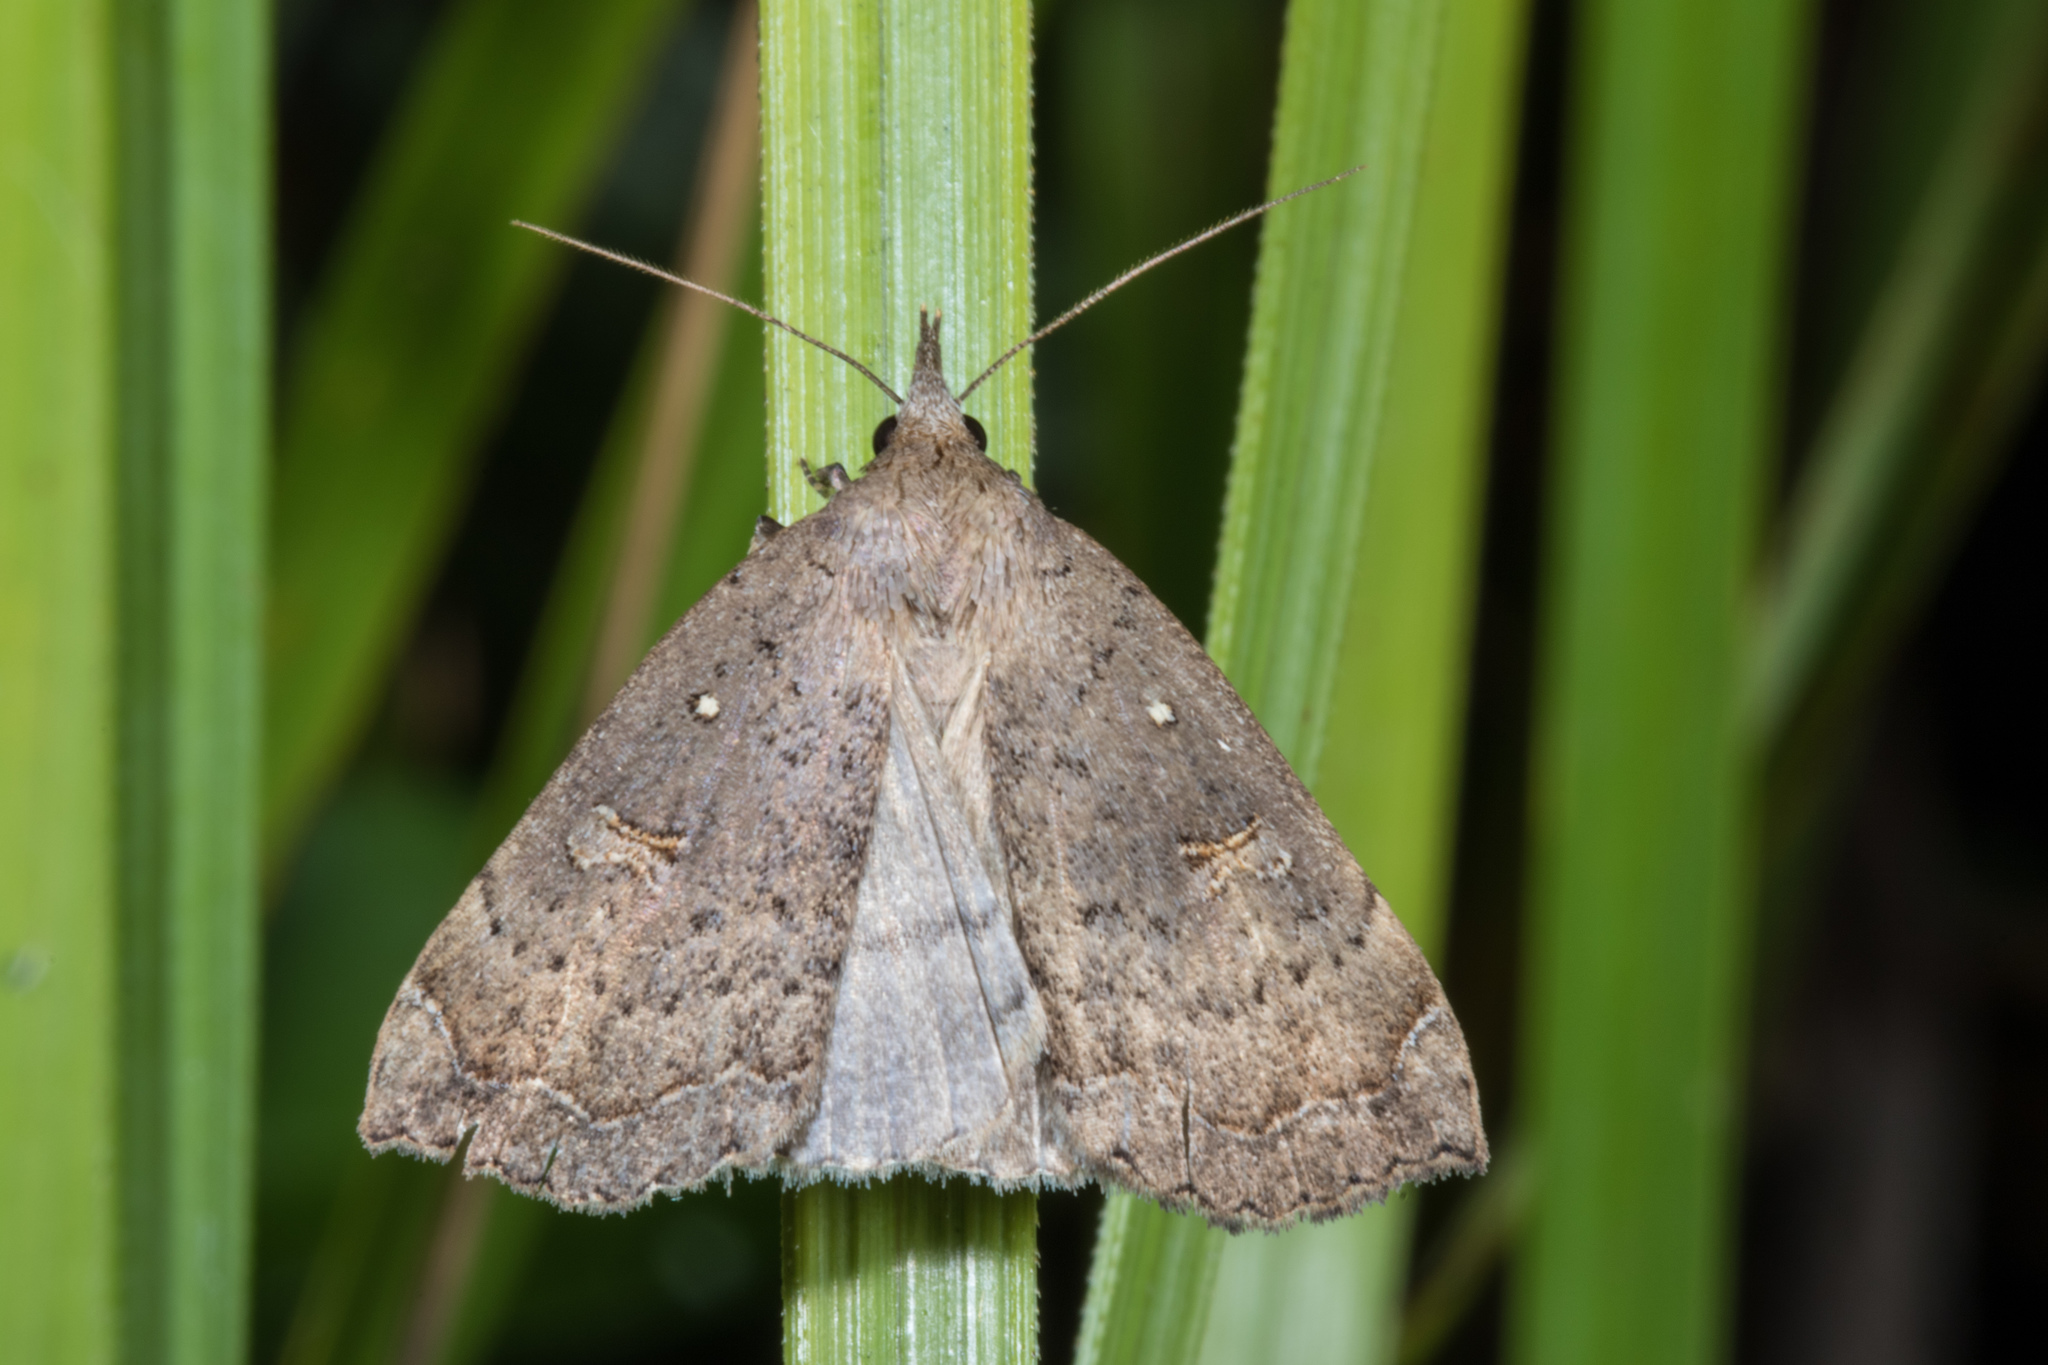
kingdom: Animalia
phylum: Arthropoda
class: Insecta
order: Lepidoptera
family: Erebidae
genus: Rhapsa
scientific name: Rhapsa scotosialis
